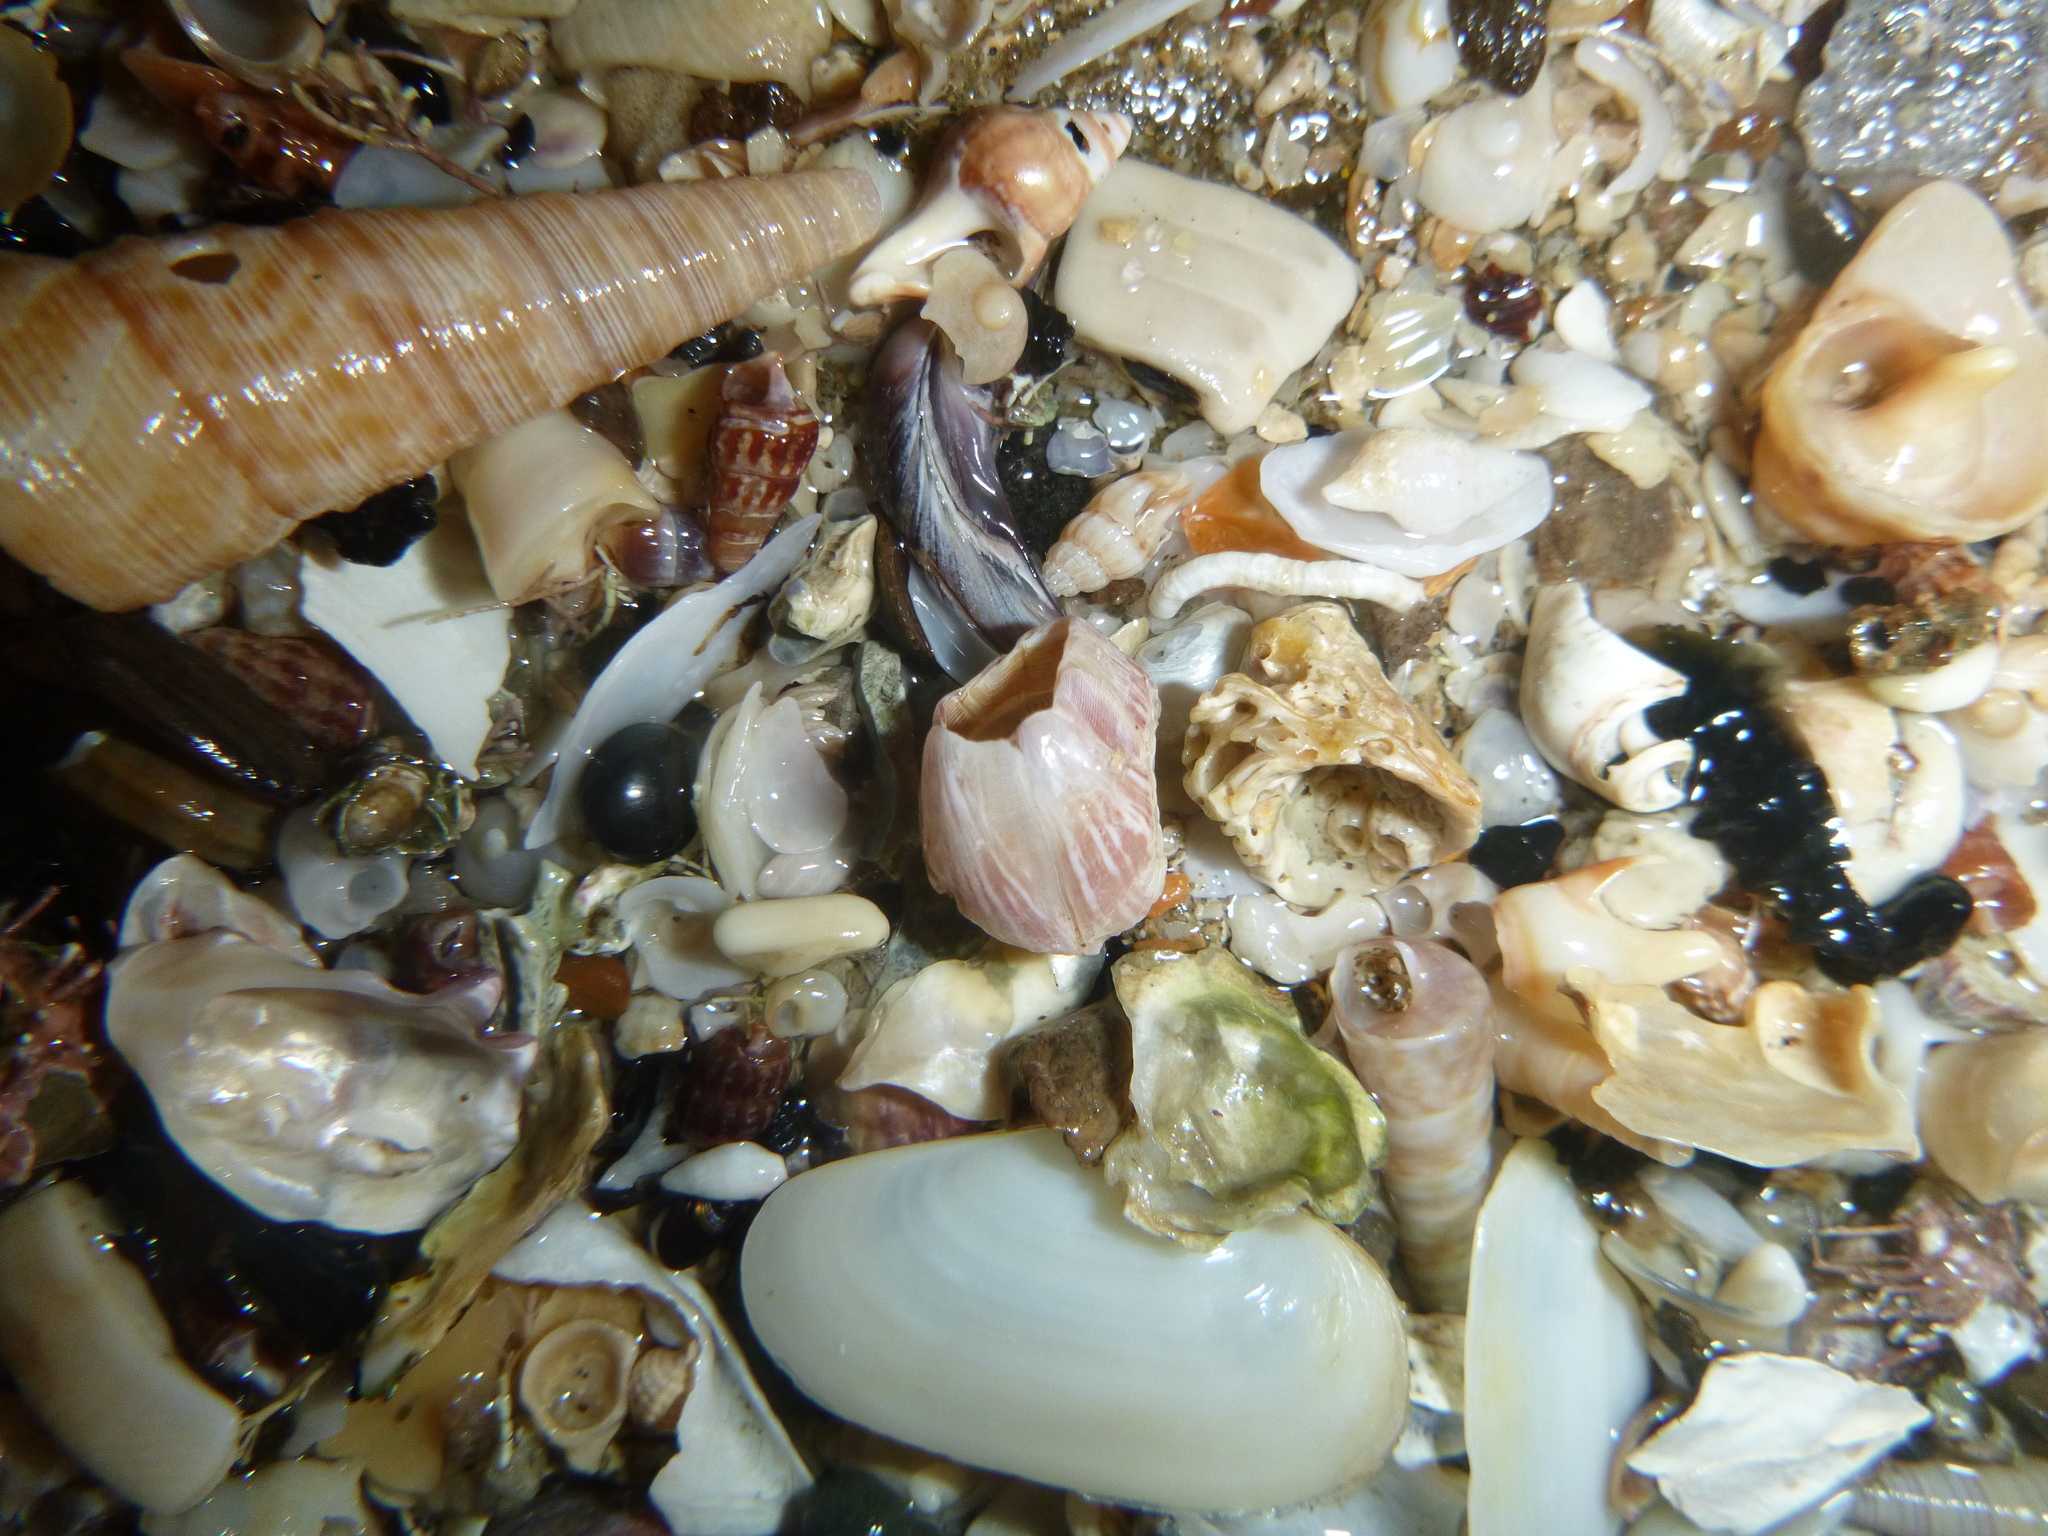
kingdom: Animalia
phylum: Arthropoda
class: Maxillopoda
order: Sessilia
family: Balanidae
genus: Balanus
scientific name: Balanus trigonus
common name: Triangle barnacle
